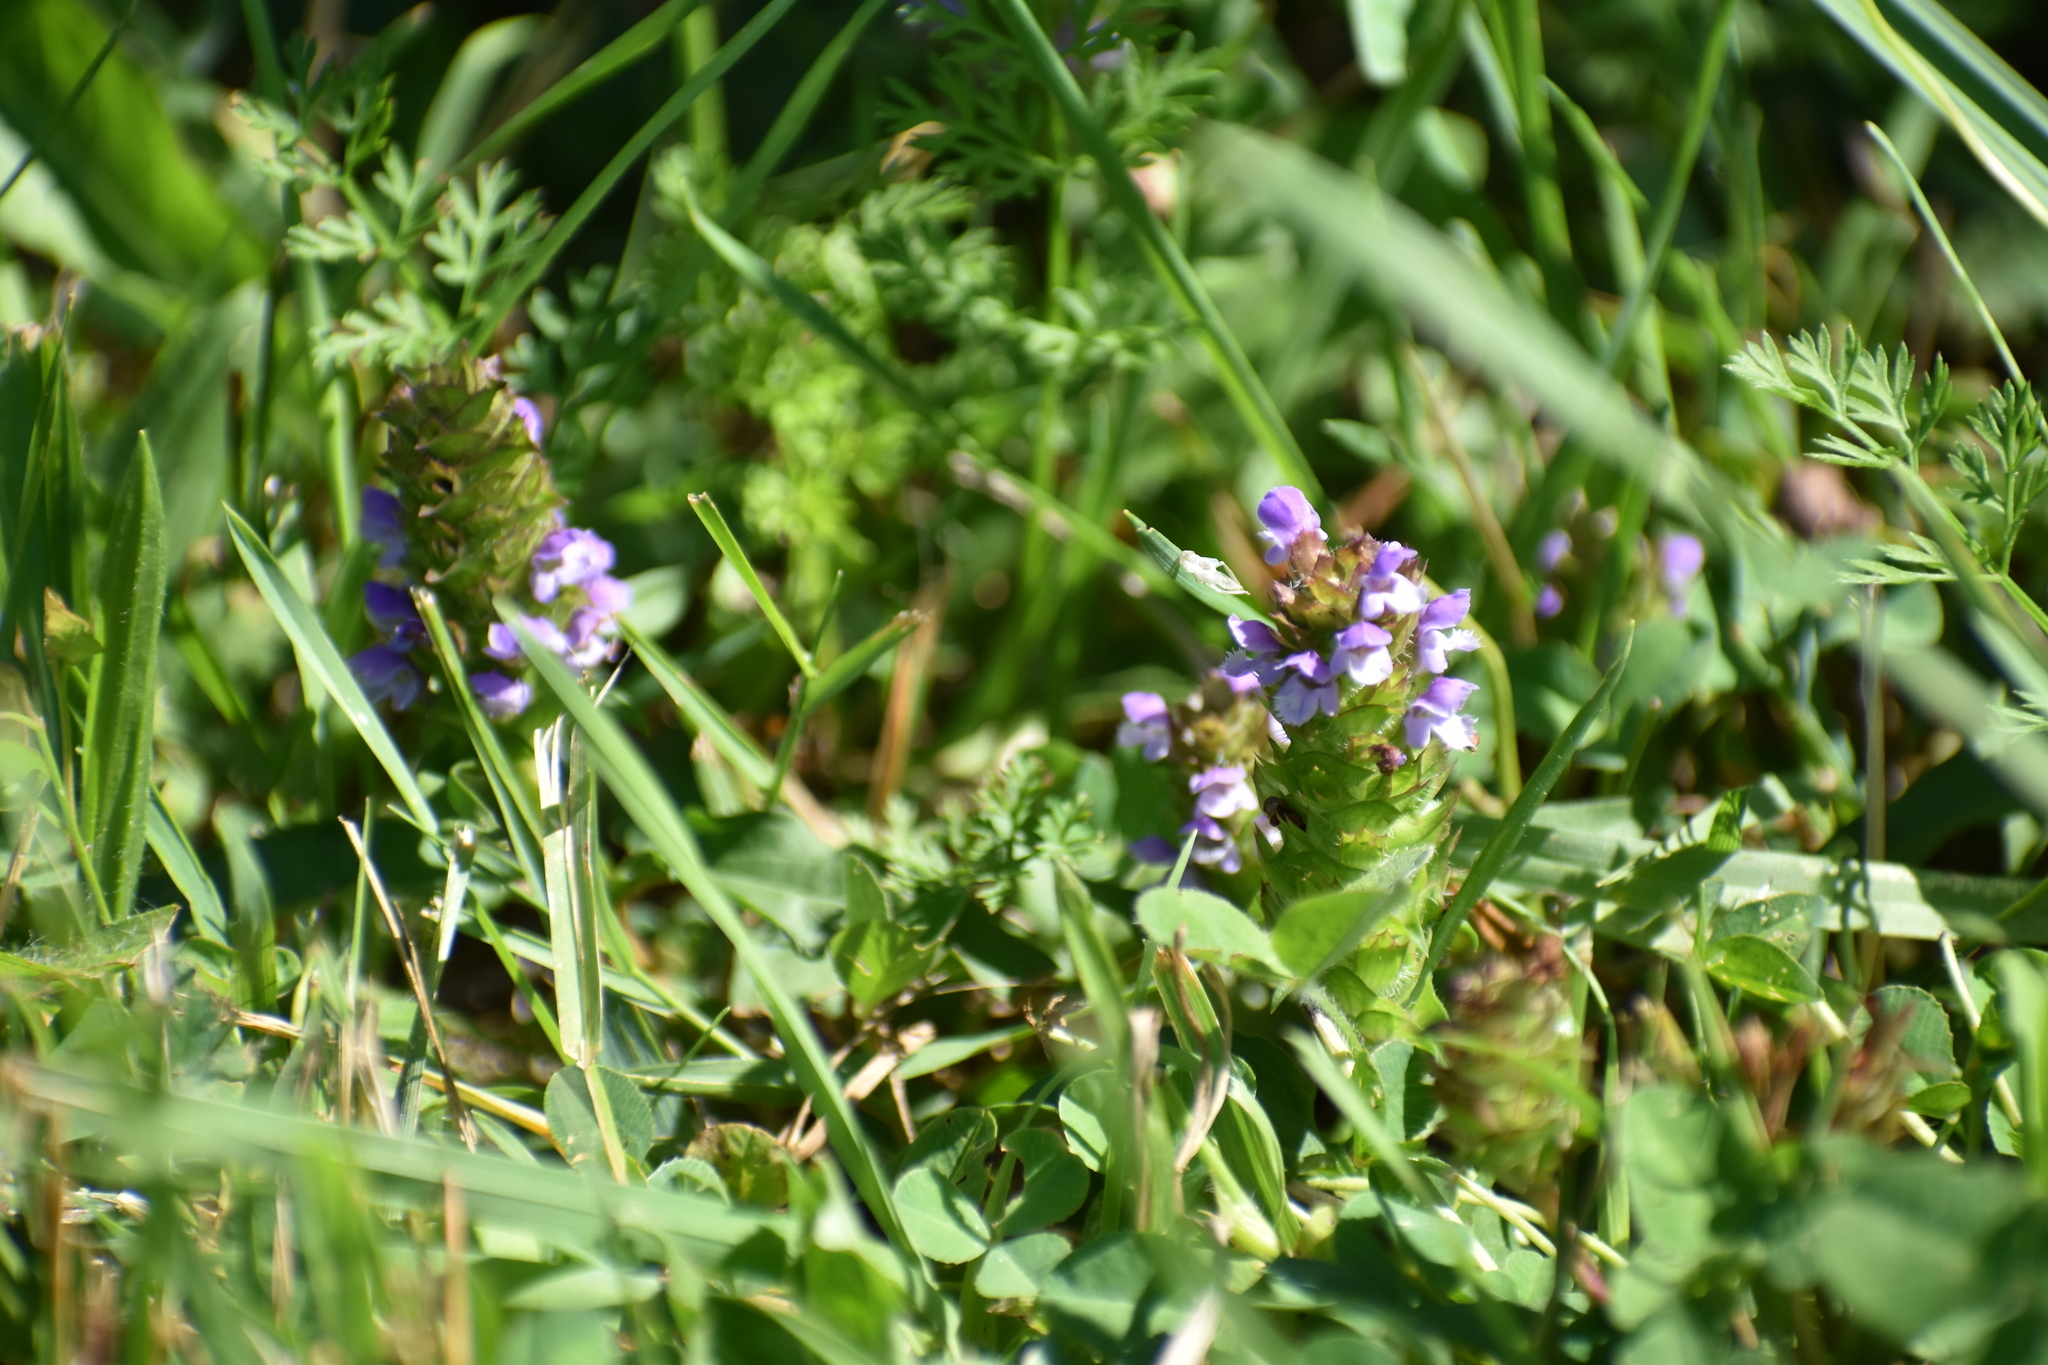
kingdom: Plantae
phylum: Tracheophyta
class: Magnoliopsida
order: Lamiales
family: Lamiaceae
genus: Prunella
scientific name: Prunella vulgaris
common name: Heal-all
